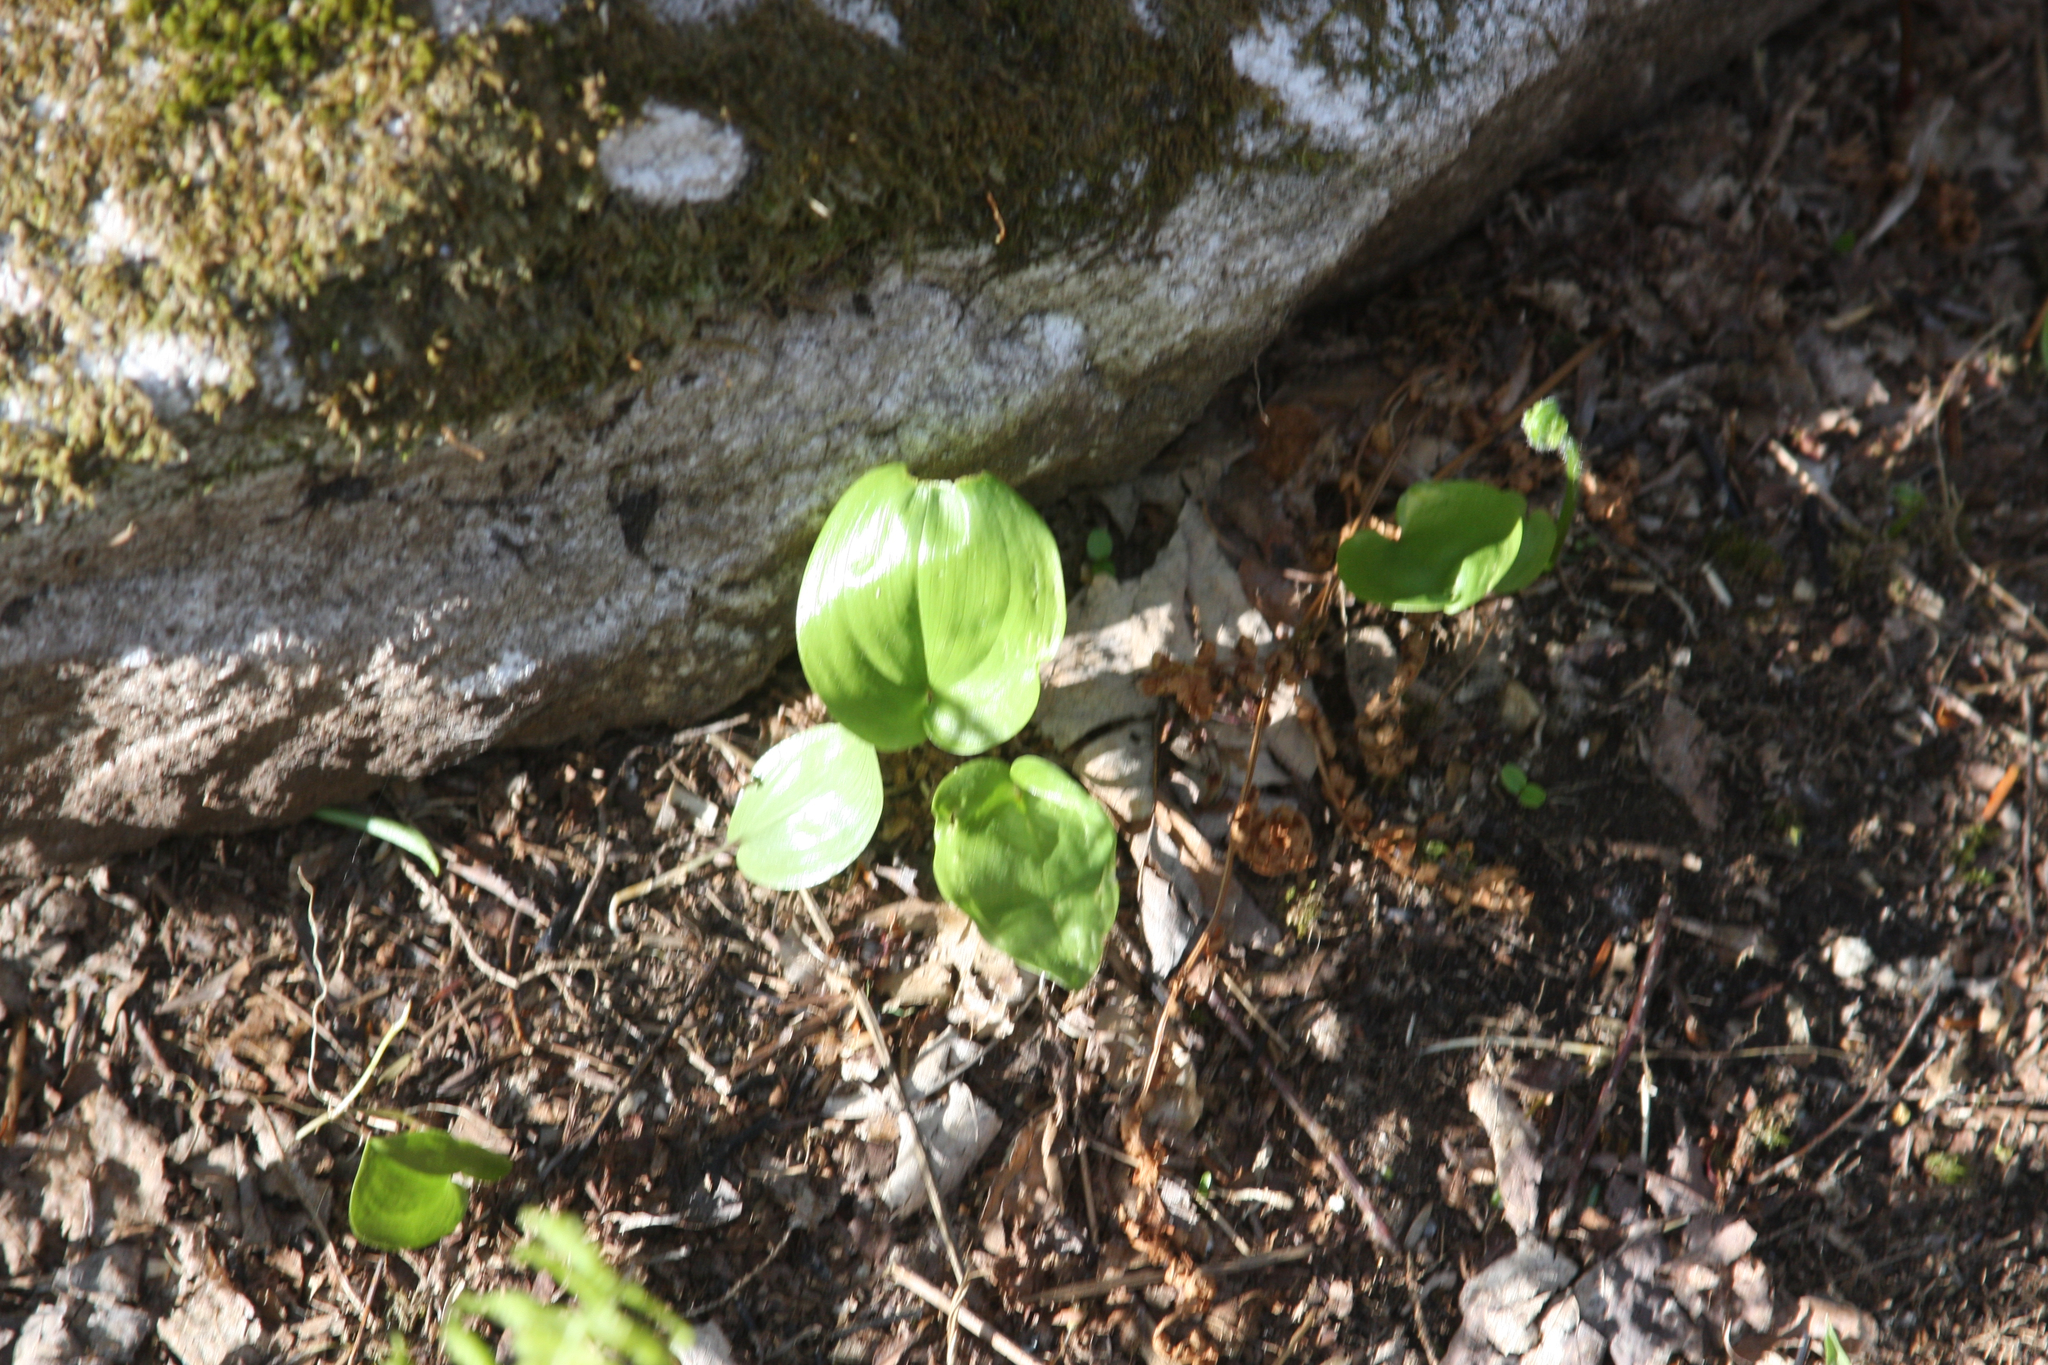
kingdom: Plantae
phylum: Tracheophyta
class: Liliopsida
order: Asparagales
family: Asparagaceae
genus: Maianthemum
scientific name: Maianthemum canadense
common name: False lily-of-the-valley
